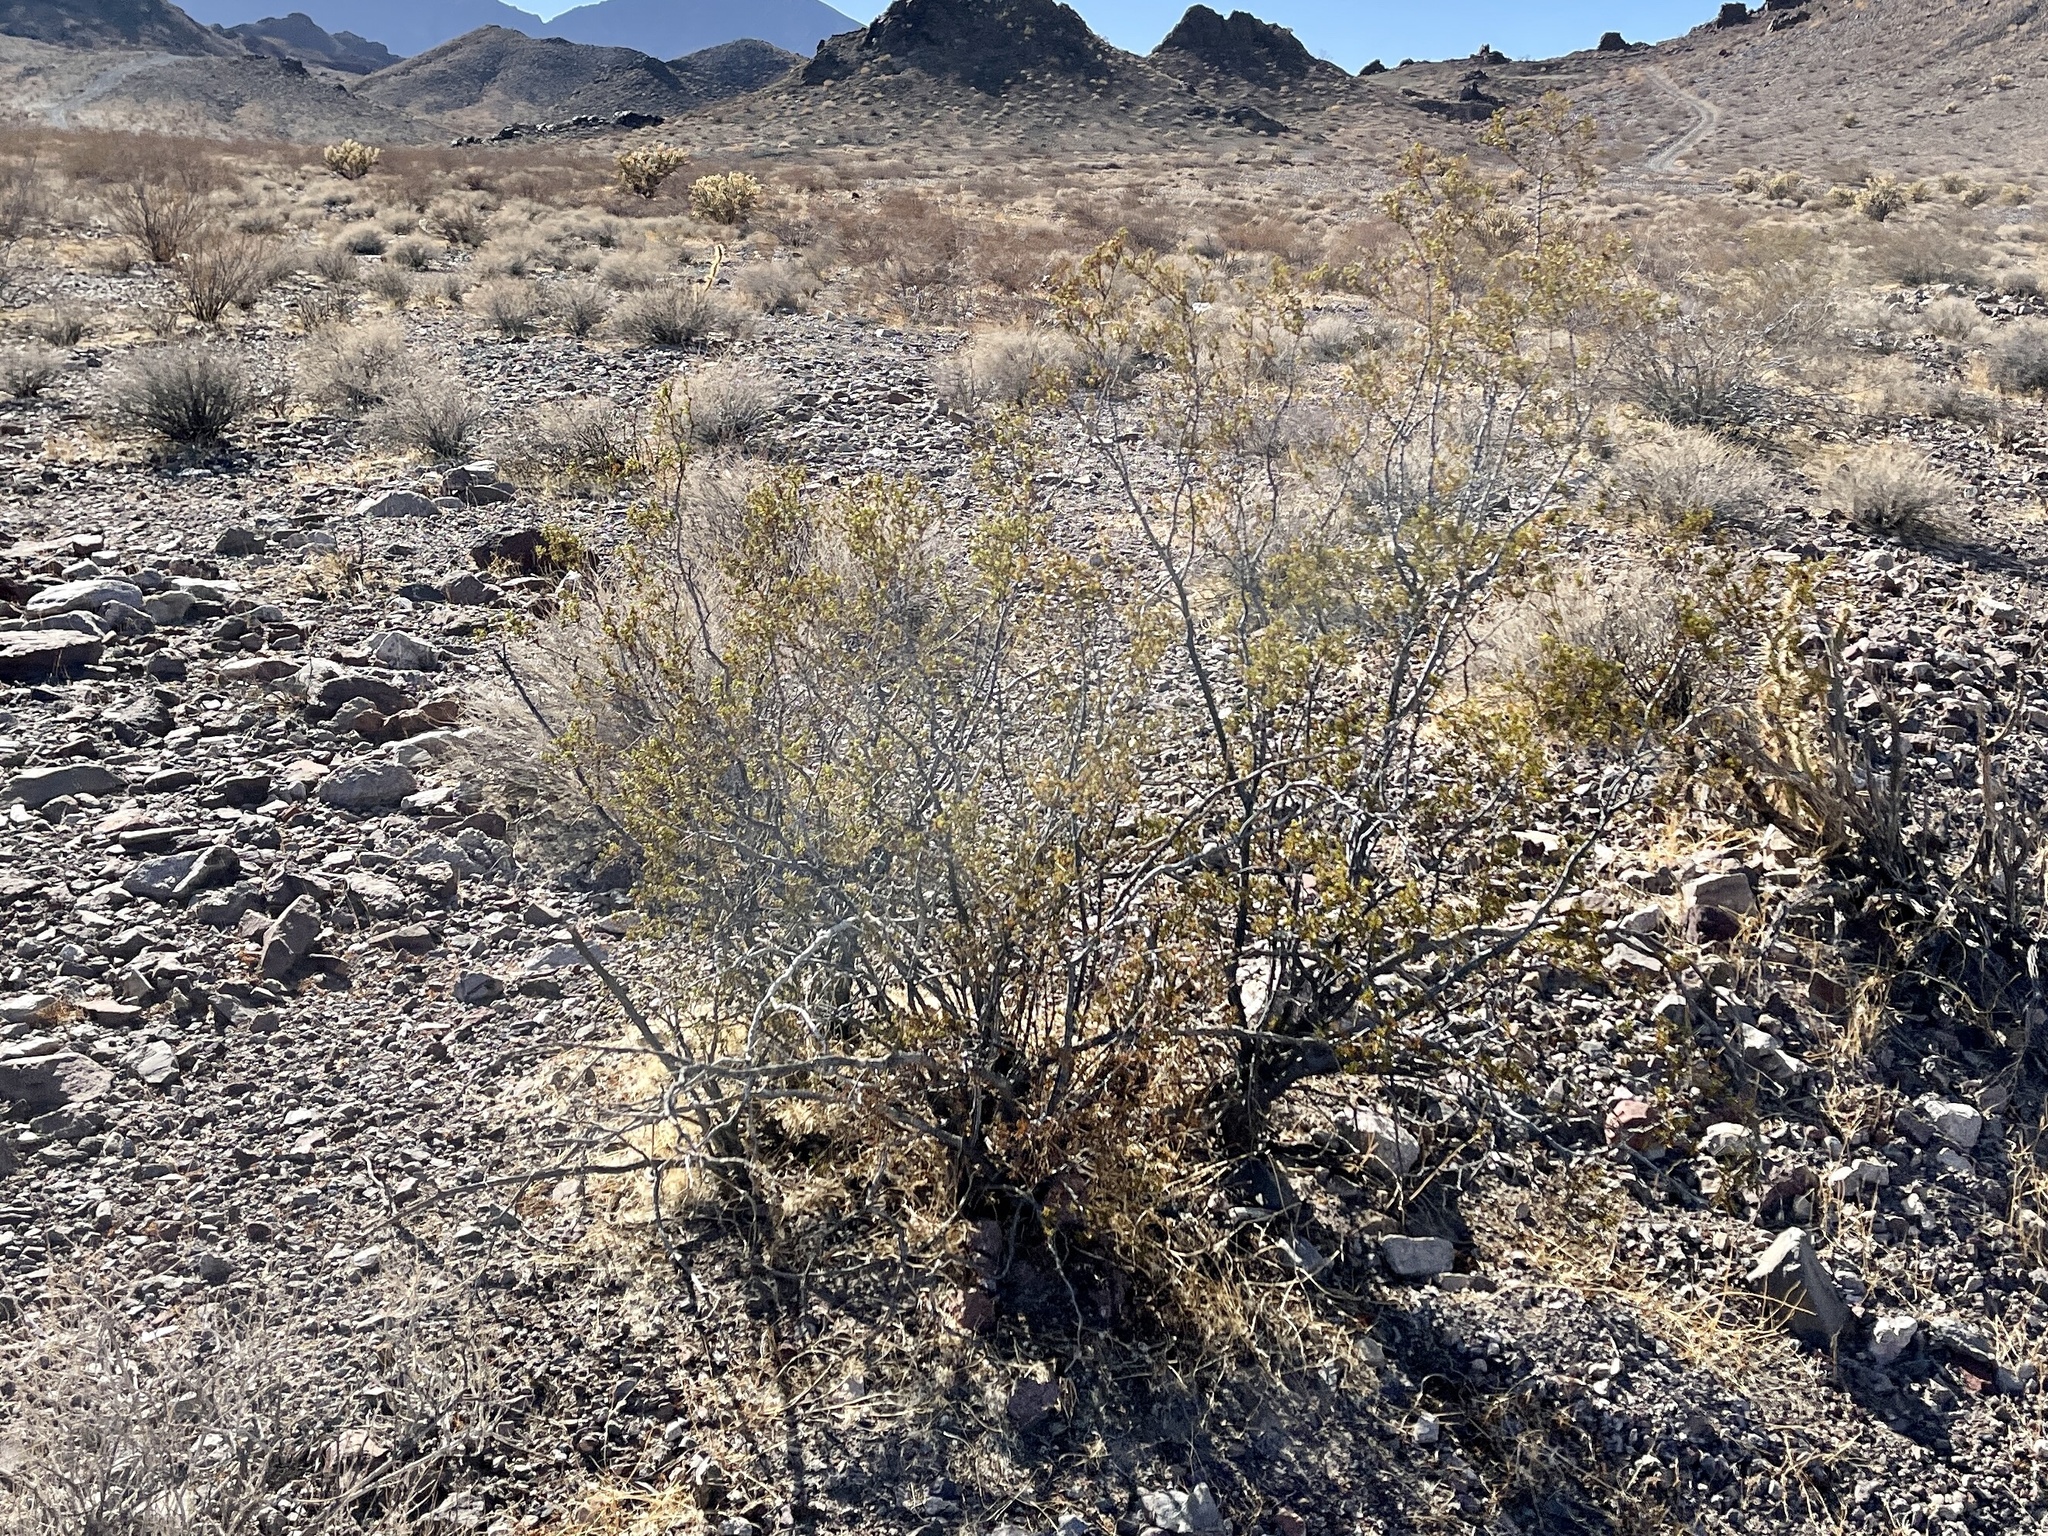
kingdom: Plantae
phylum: Tracheophyta
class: Magnoliopsida
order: Zygophyllales
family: Zygophyllaceae
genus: Larrea
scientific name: Larrea tridentata
